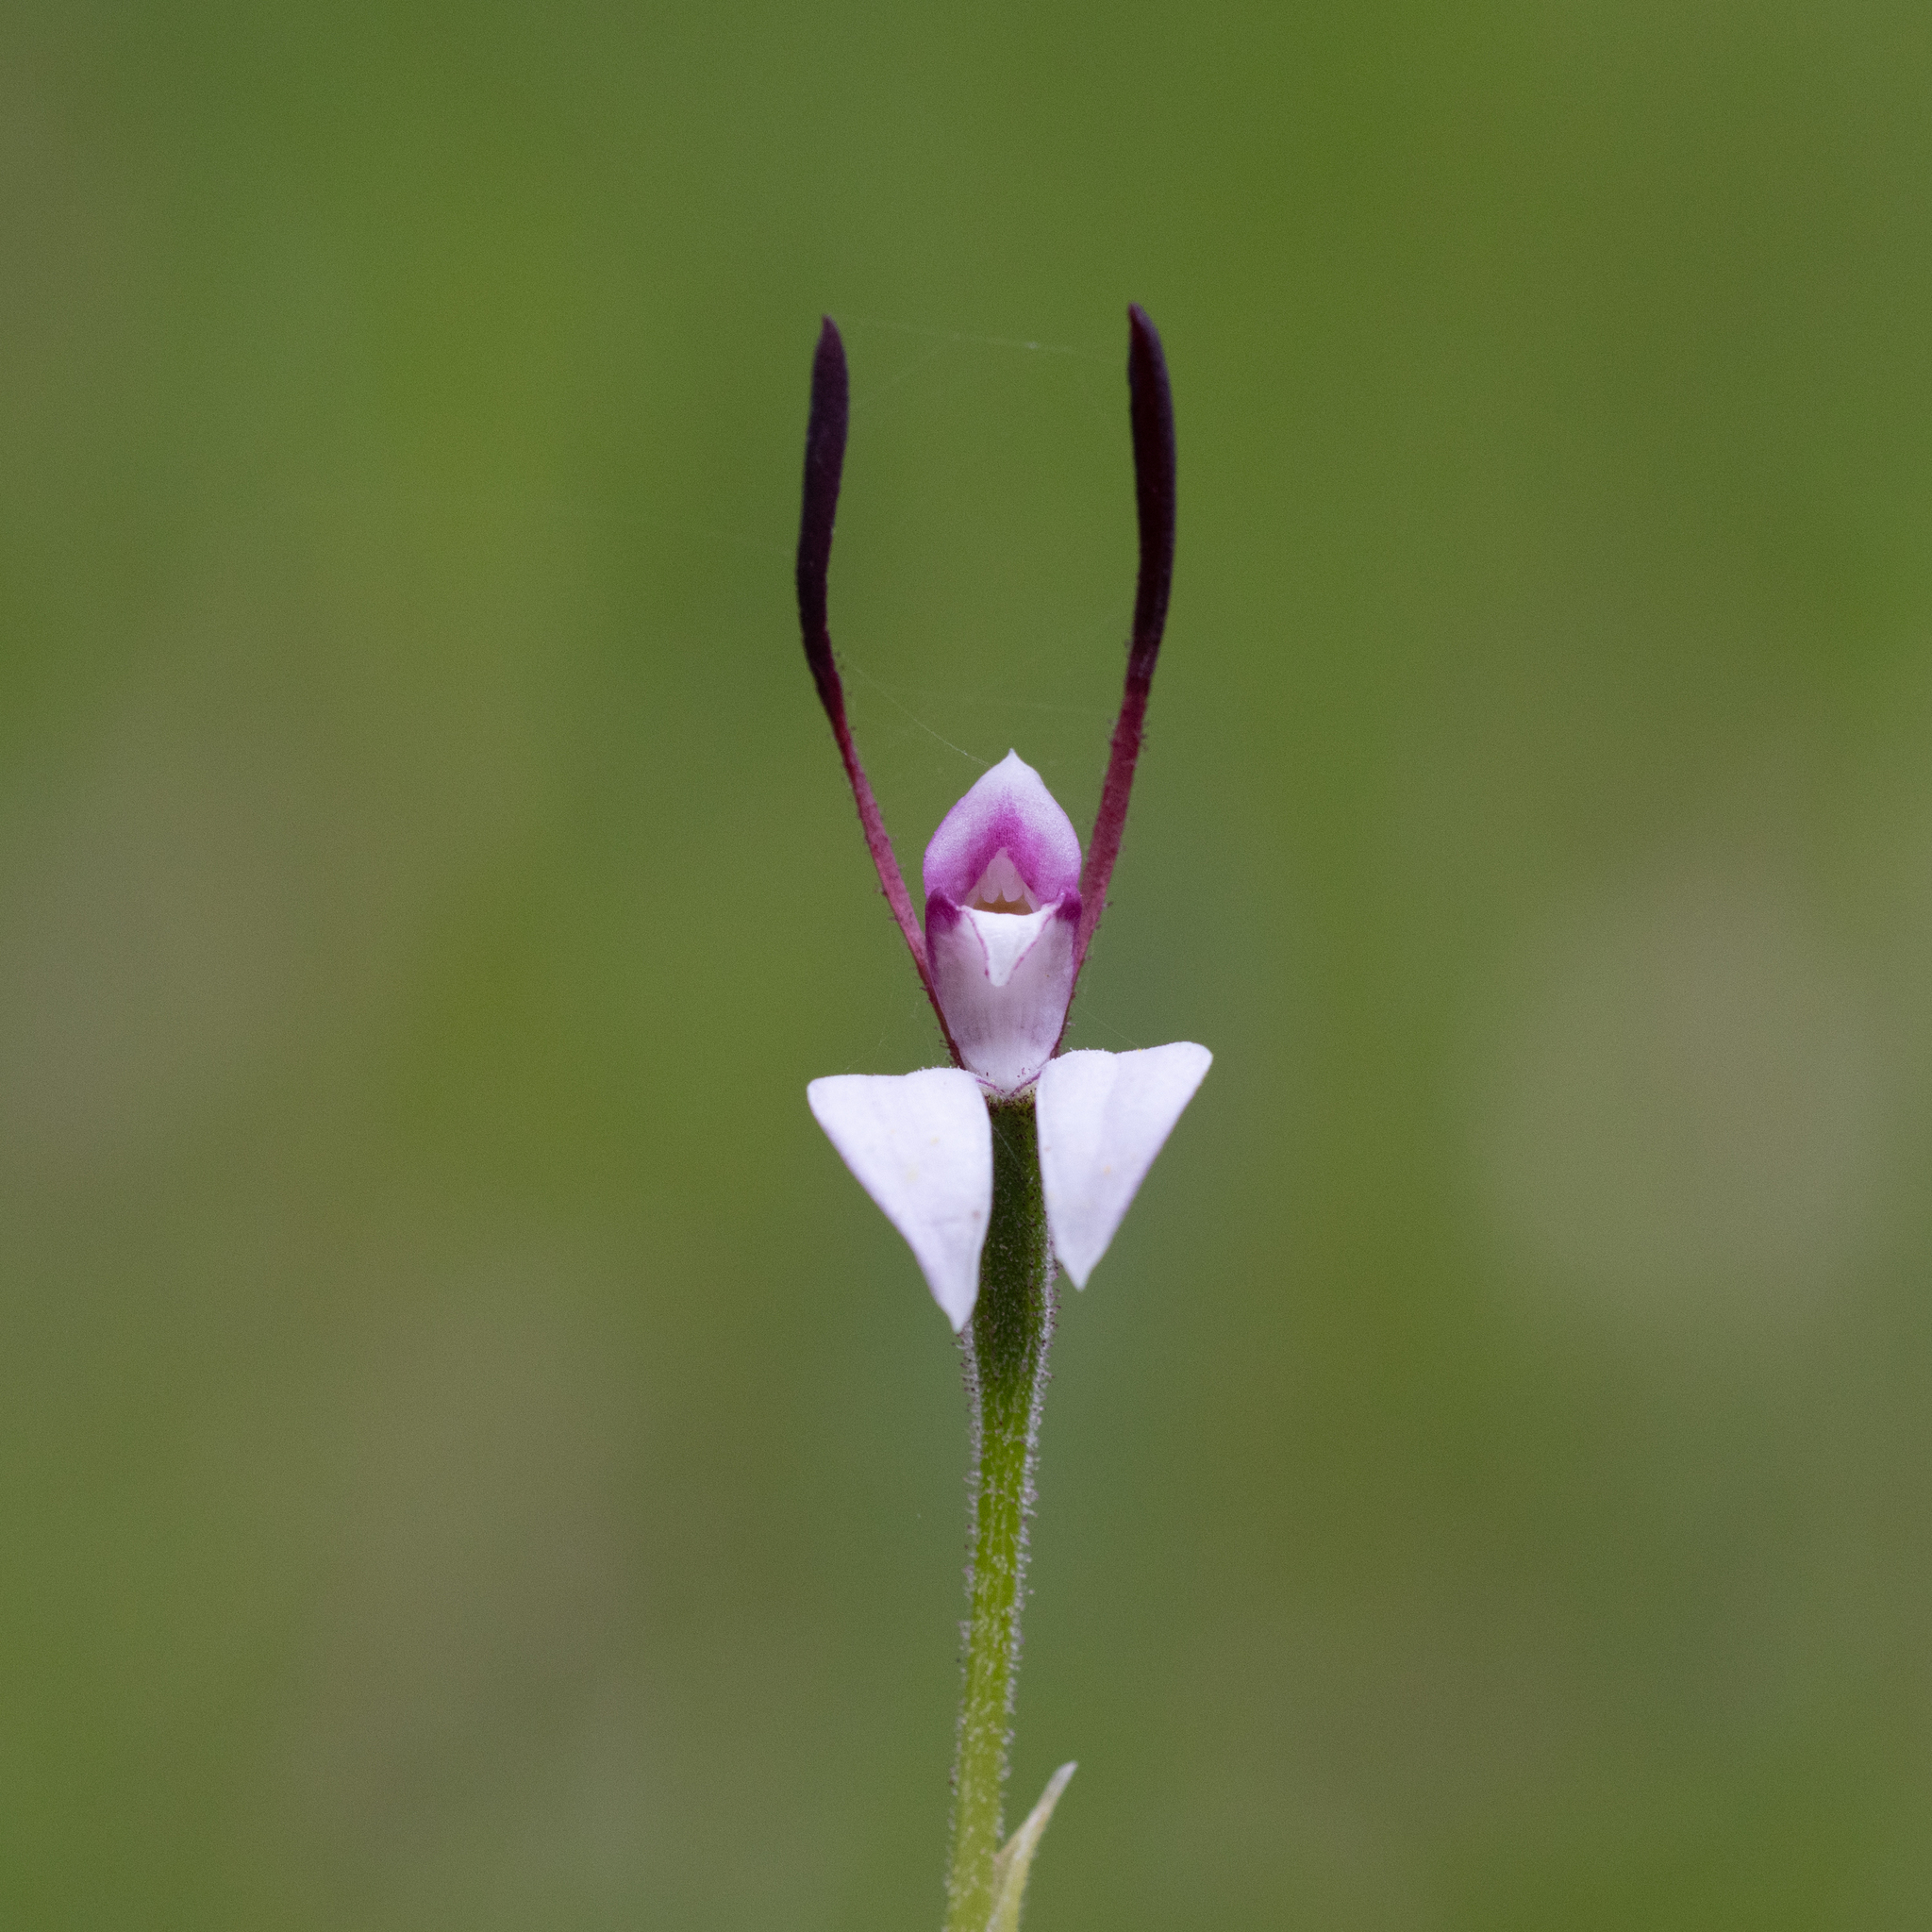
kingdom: Plantae
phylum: Tracheophyta
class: Liliopsida
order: Asparagales
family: Orchidaceae
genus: Leptoceras
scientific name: Leptoceras menziesii
